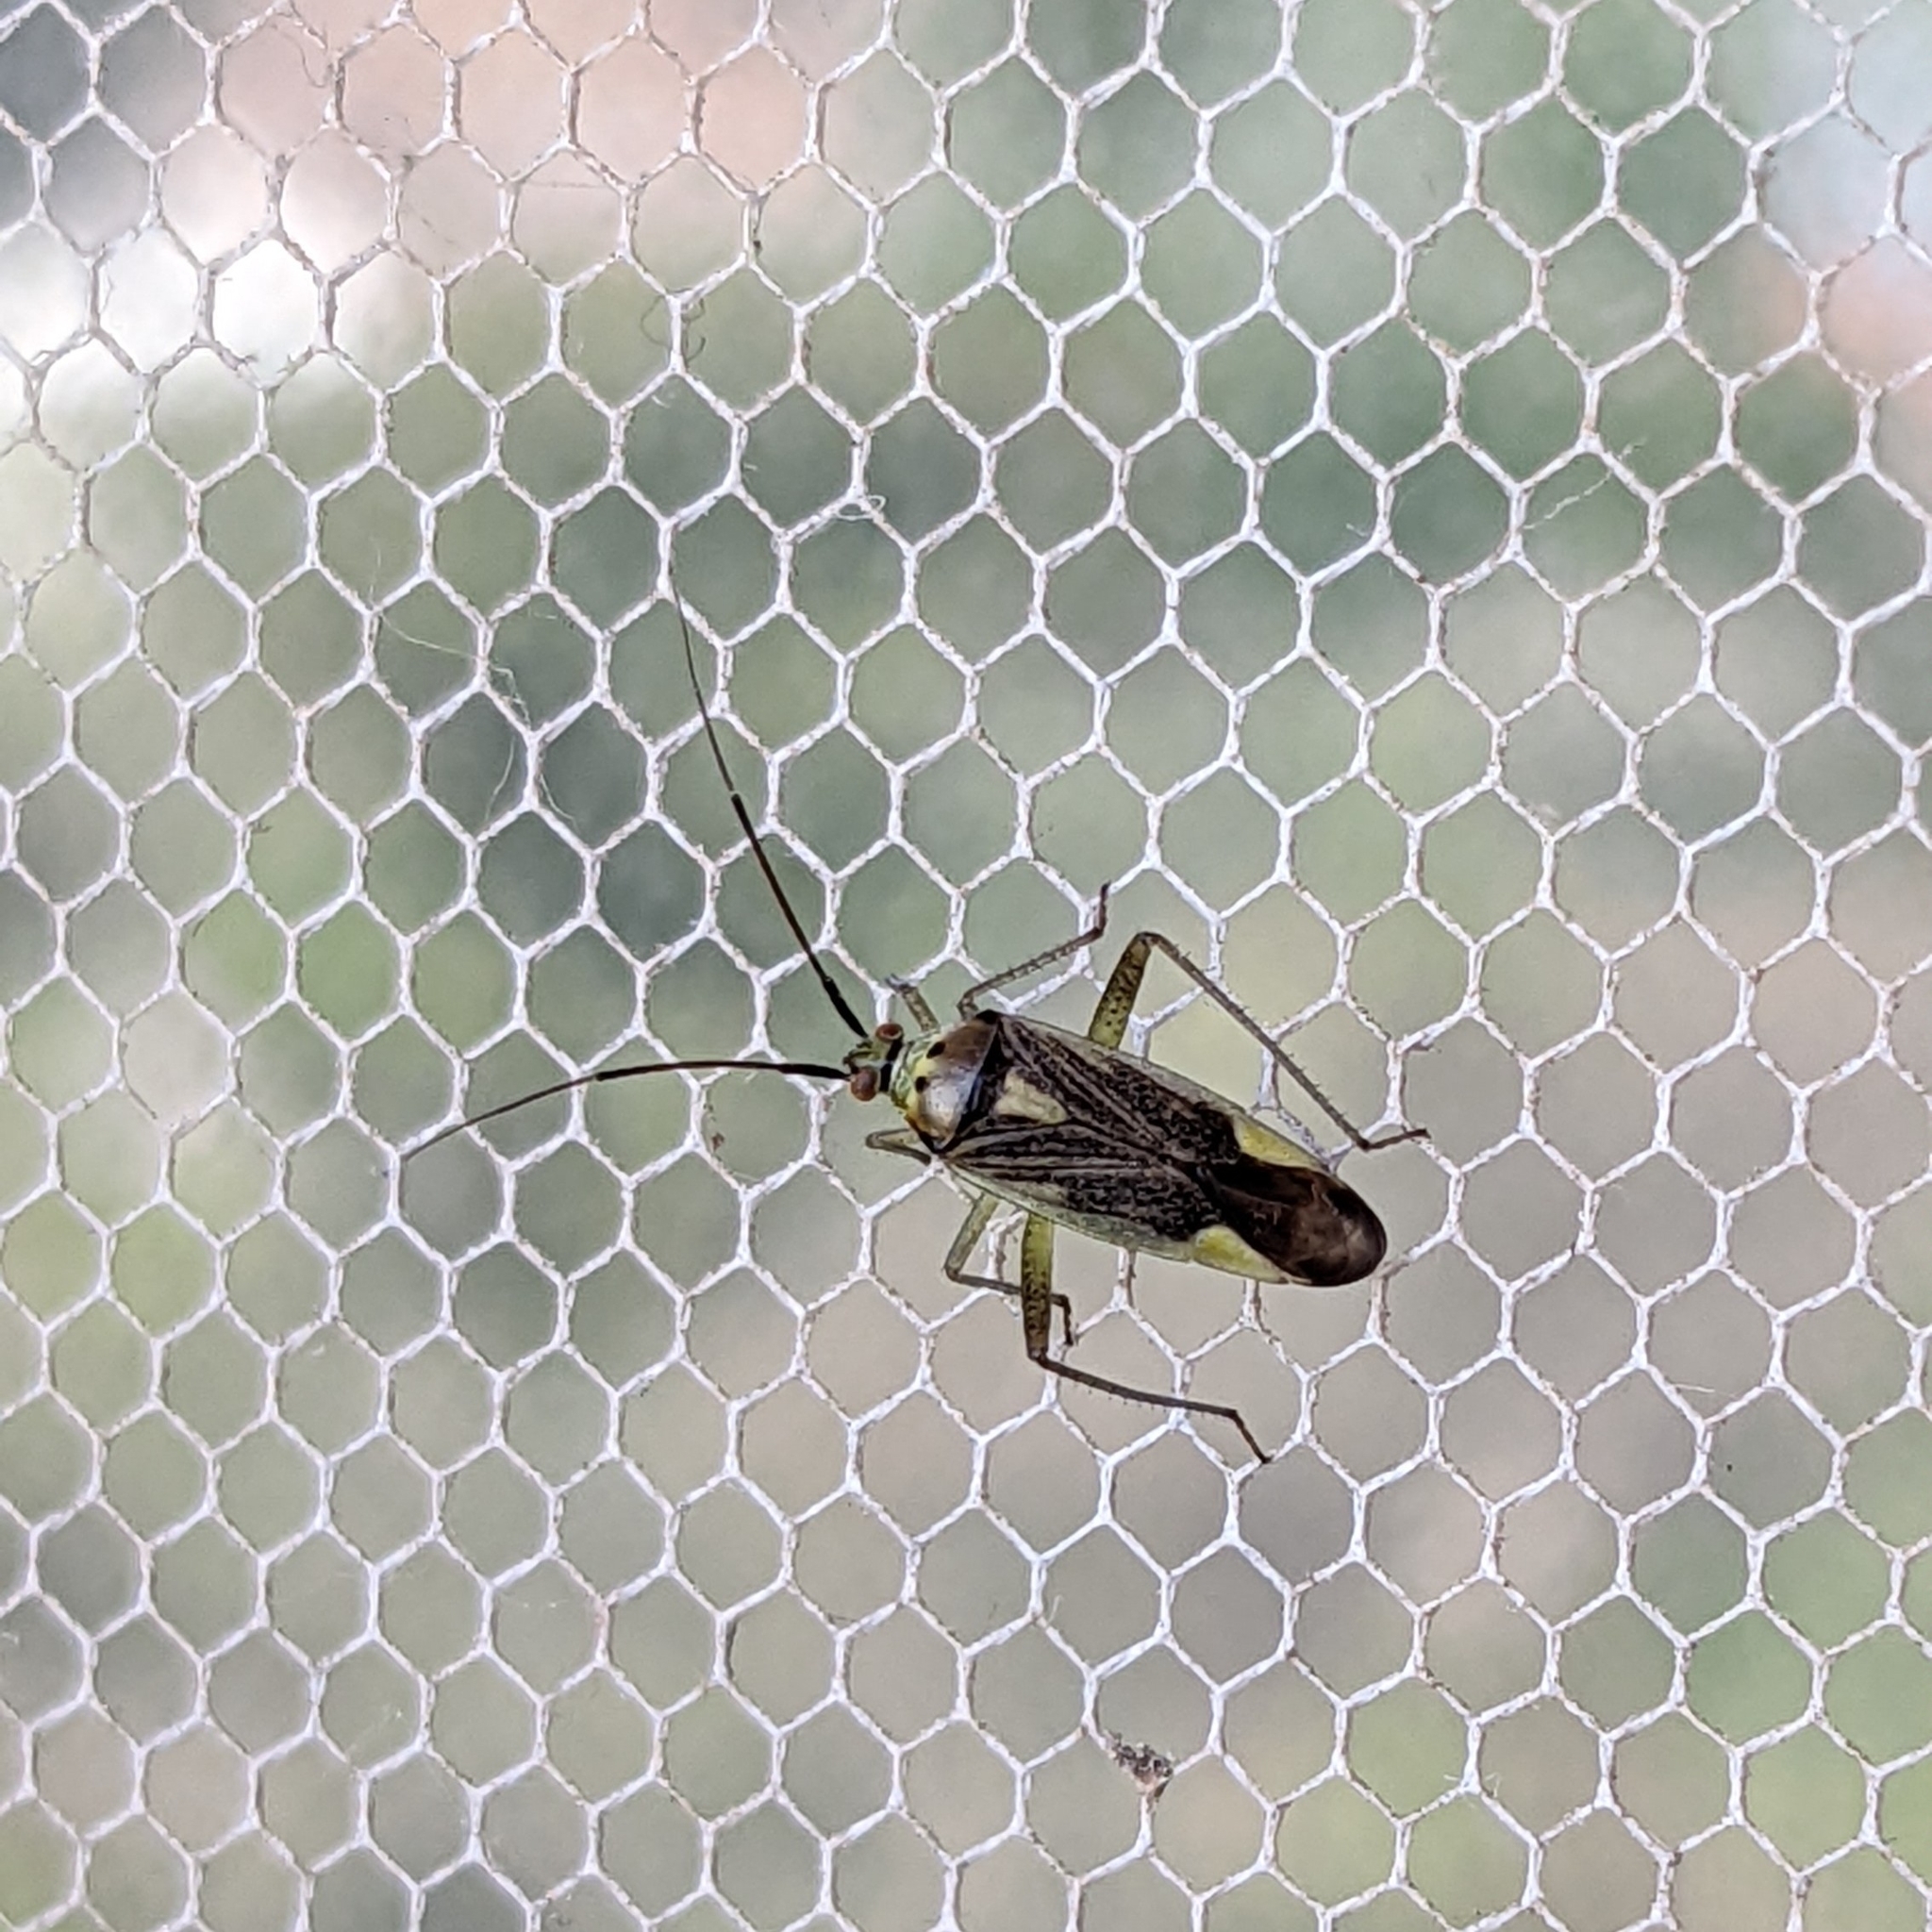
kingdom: Animalia
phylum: Arthropoda
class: Insecta
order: Hemiptera
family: Miridae
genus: Closterotomus
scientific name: Closterotomus trivialis
